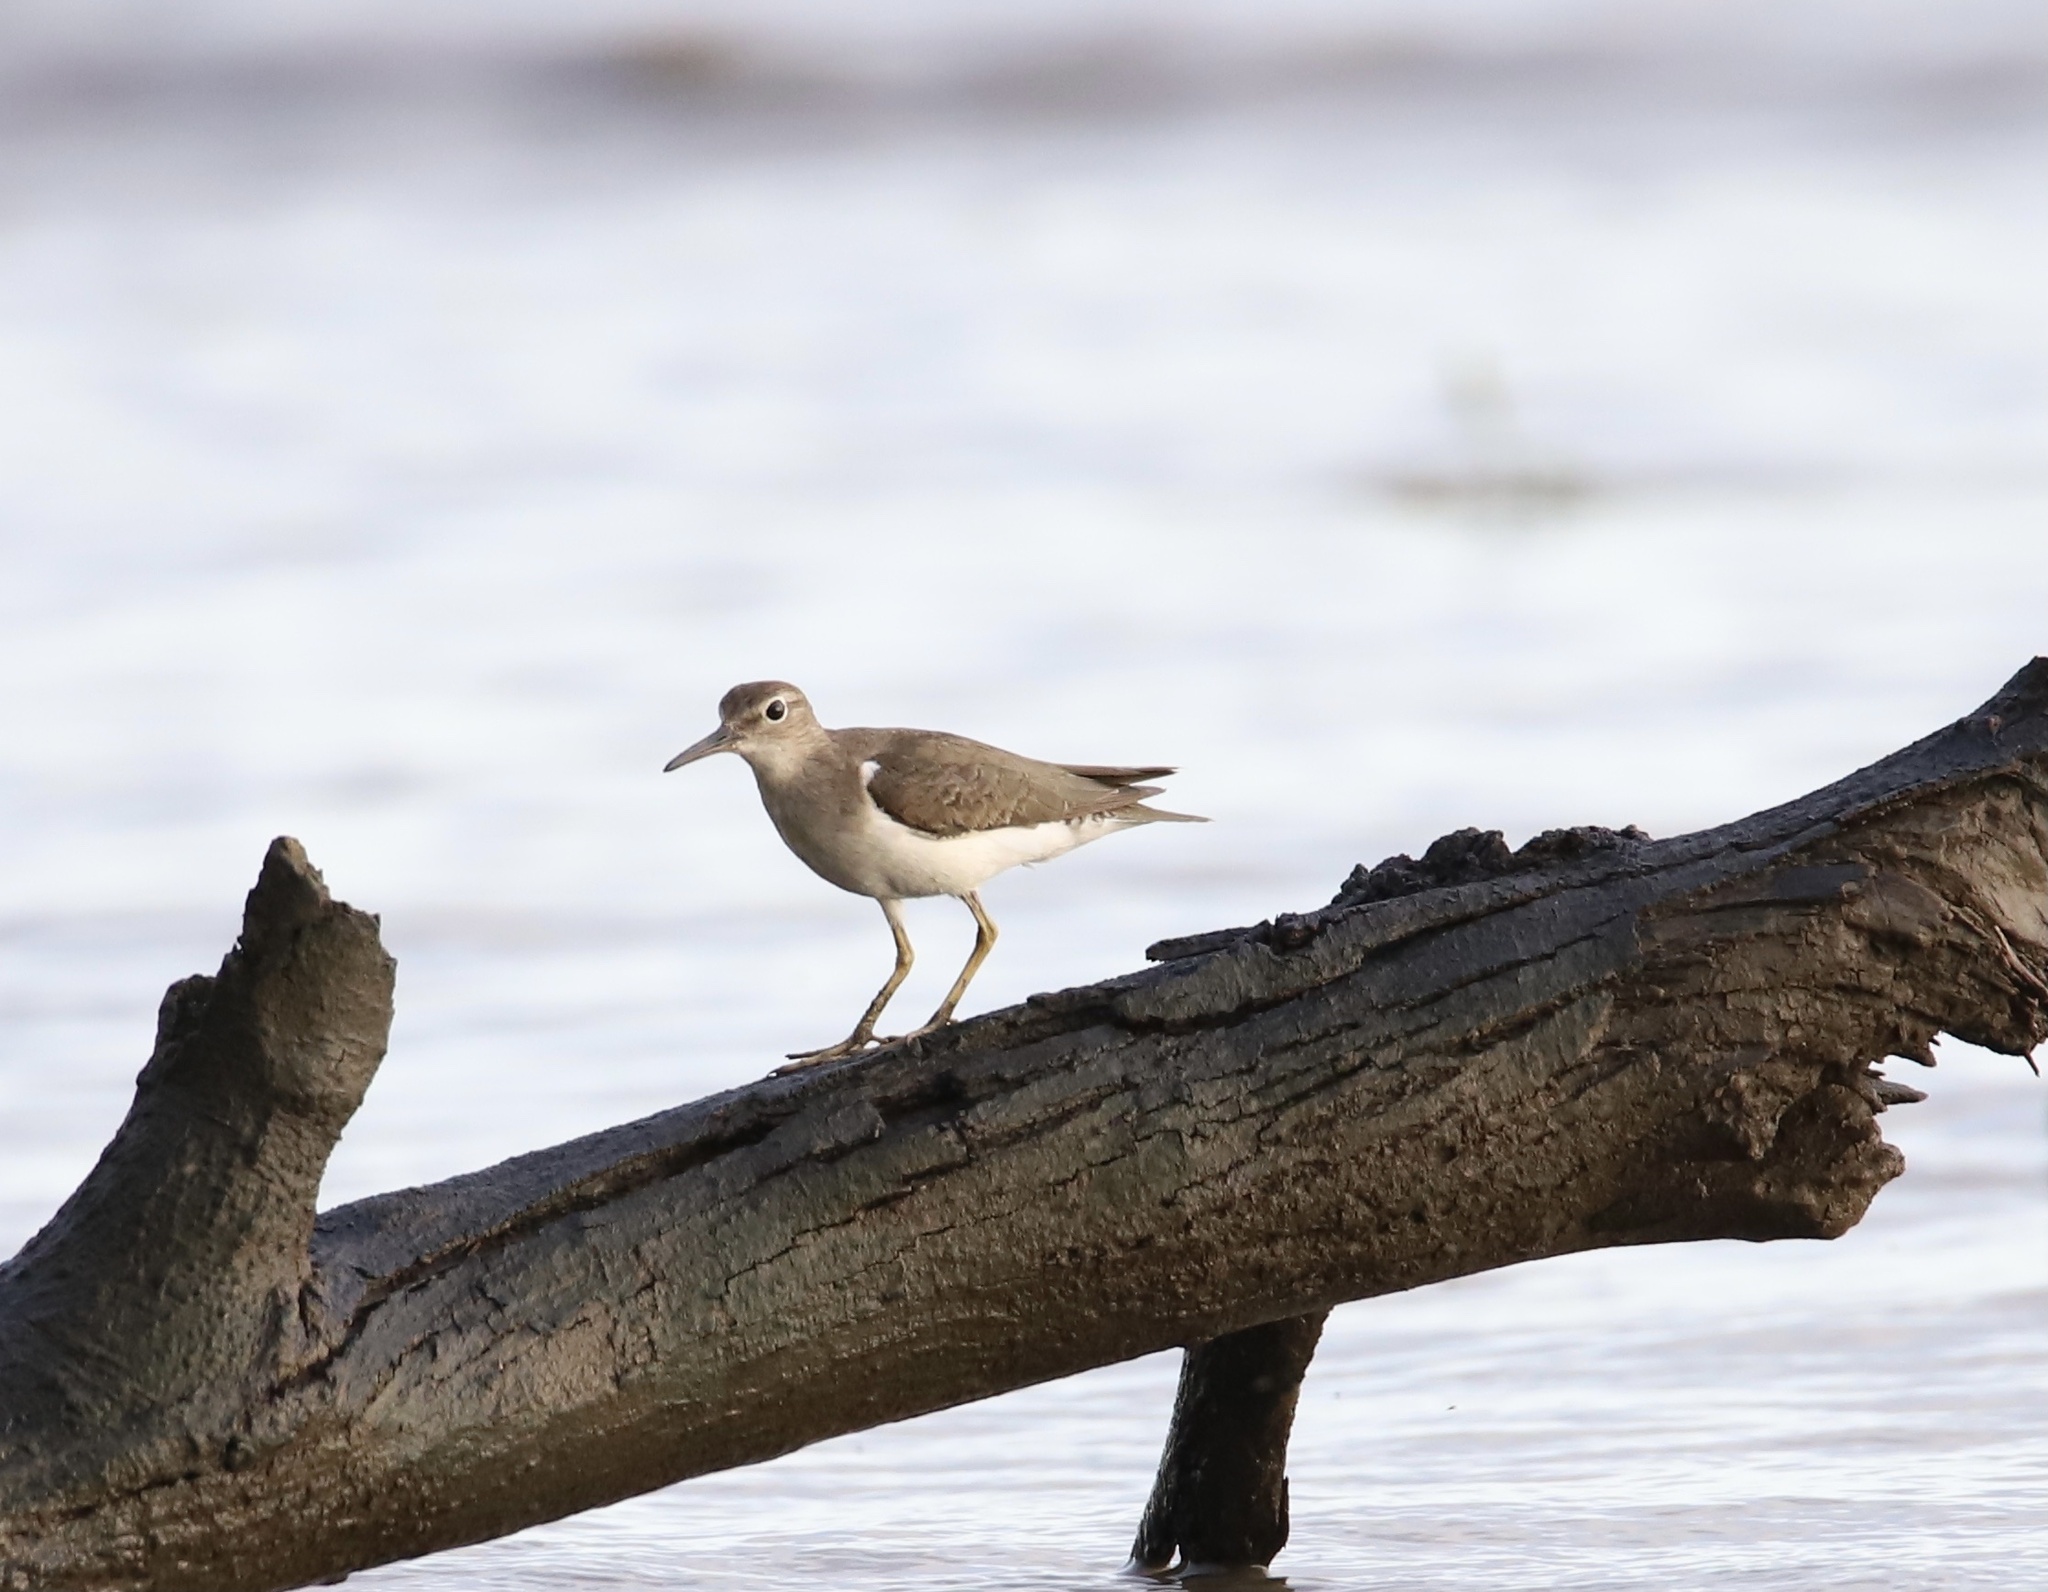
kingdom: Animalia
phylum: Chordata
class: Aves
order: Charadriiformes
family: Scolopacidae
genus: Actitis
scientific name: Actitis macularius
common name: Spotted sandpiper
